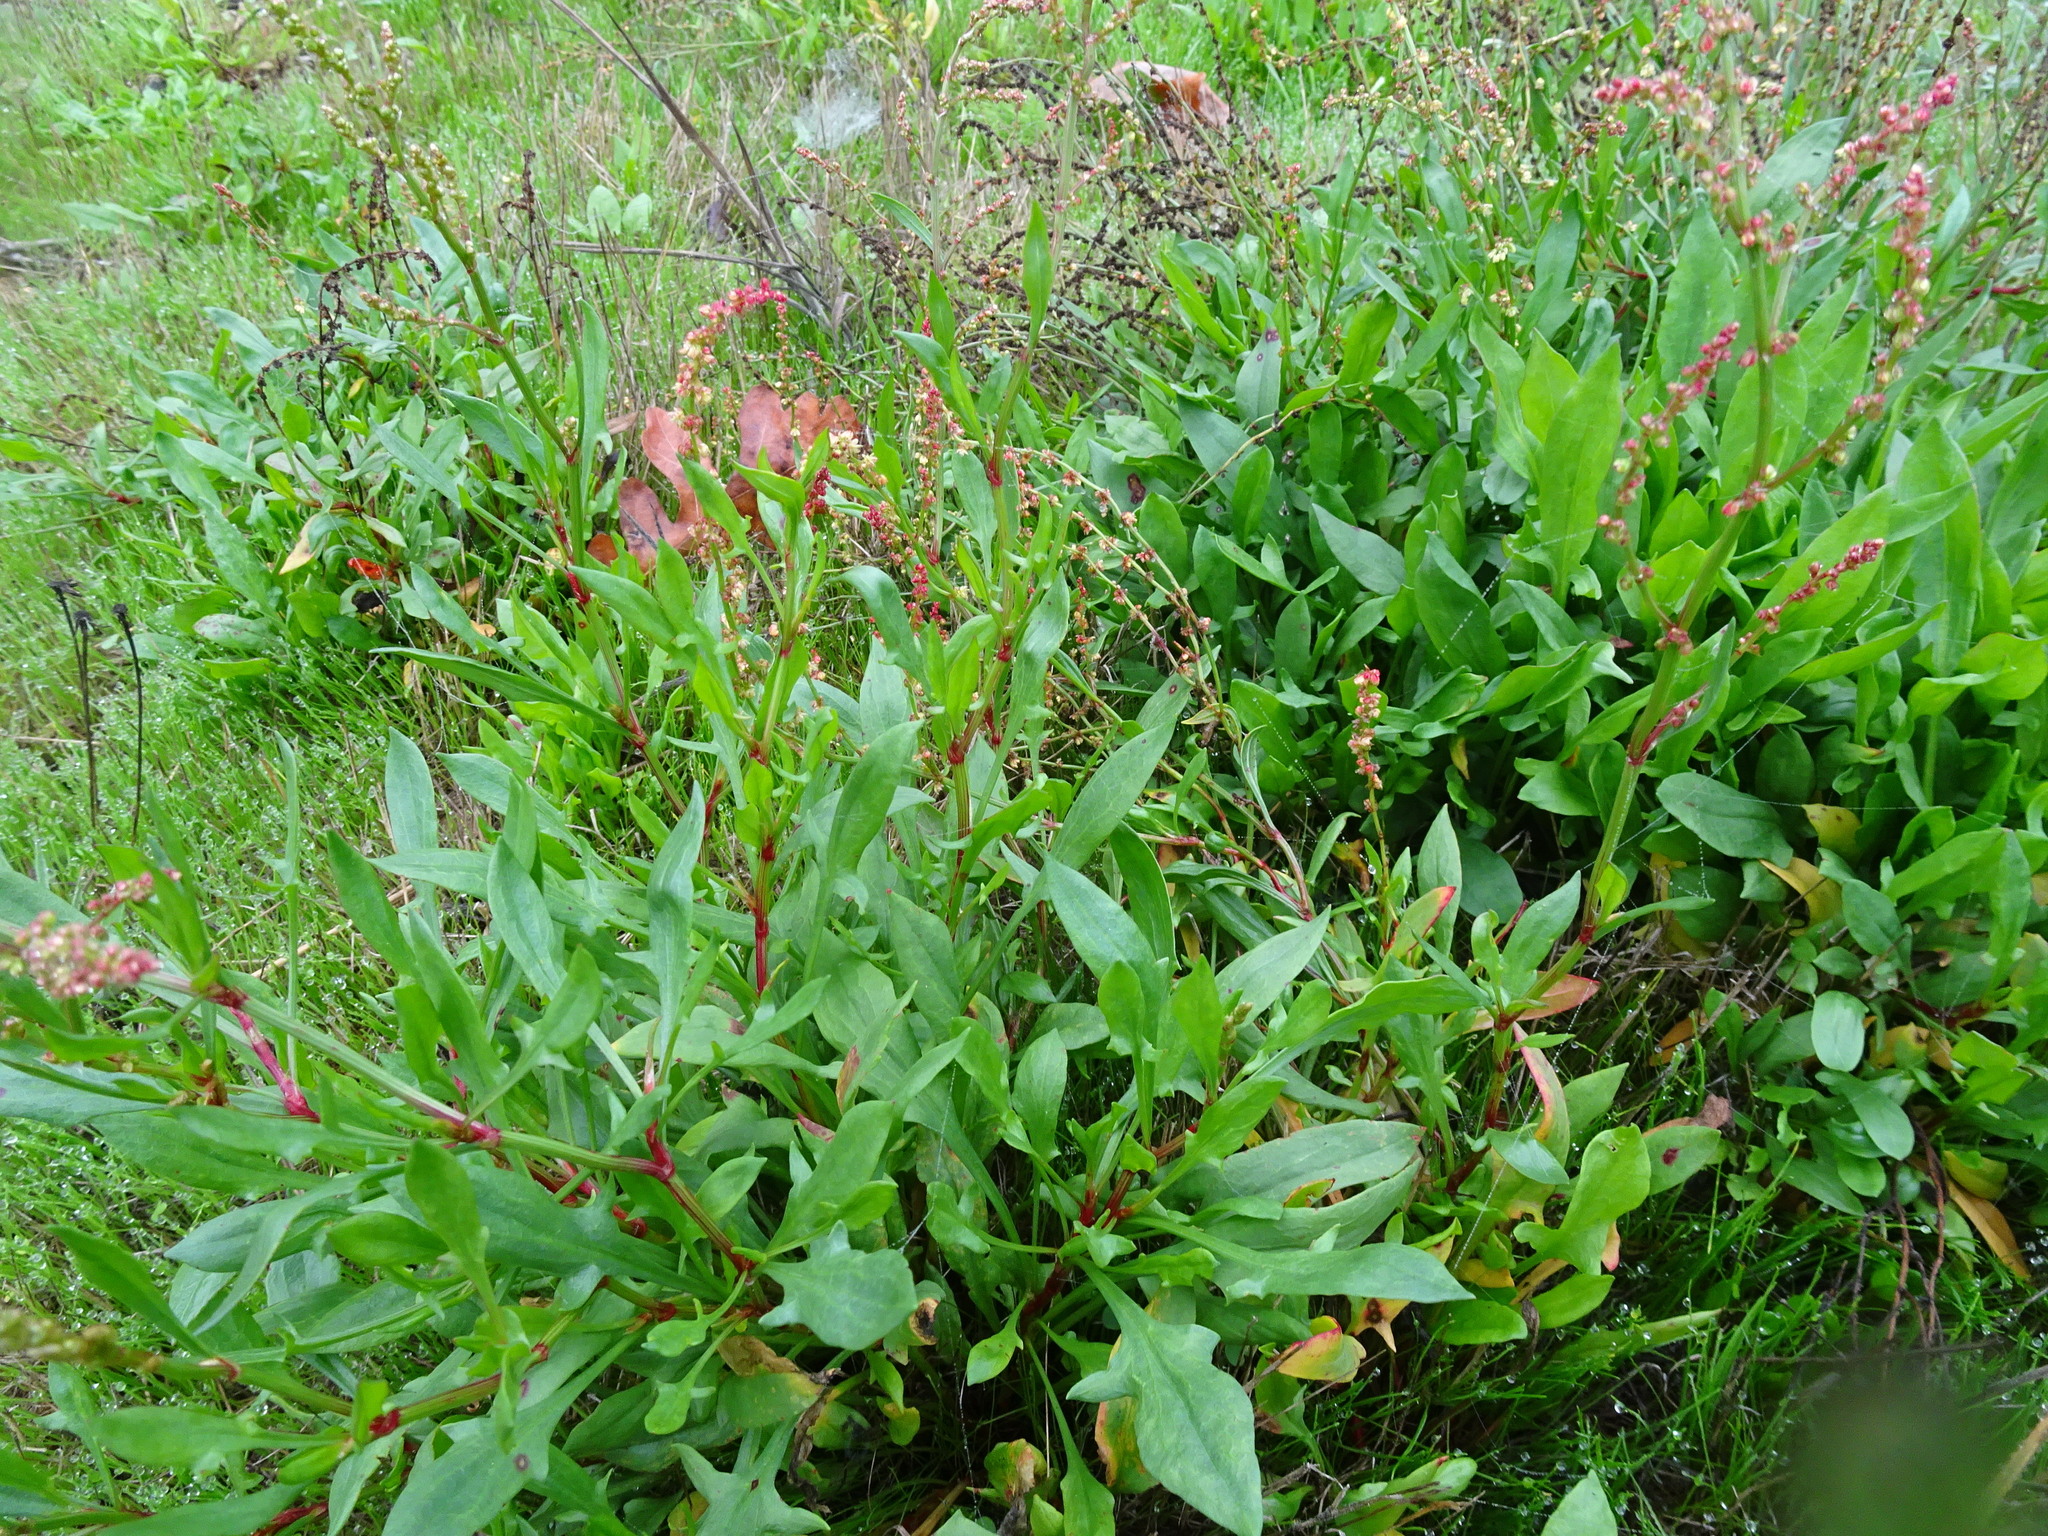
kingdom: Plantae
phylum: Tracheophyta
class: Magnoliopsida
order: Caryophyllales
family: Polygonaceae
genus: Rumex
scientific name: Rumex acetosella
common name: Common sheep sorrel
